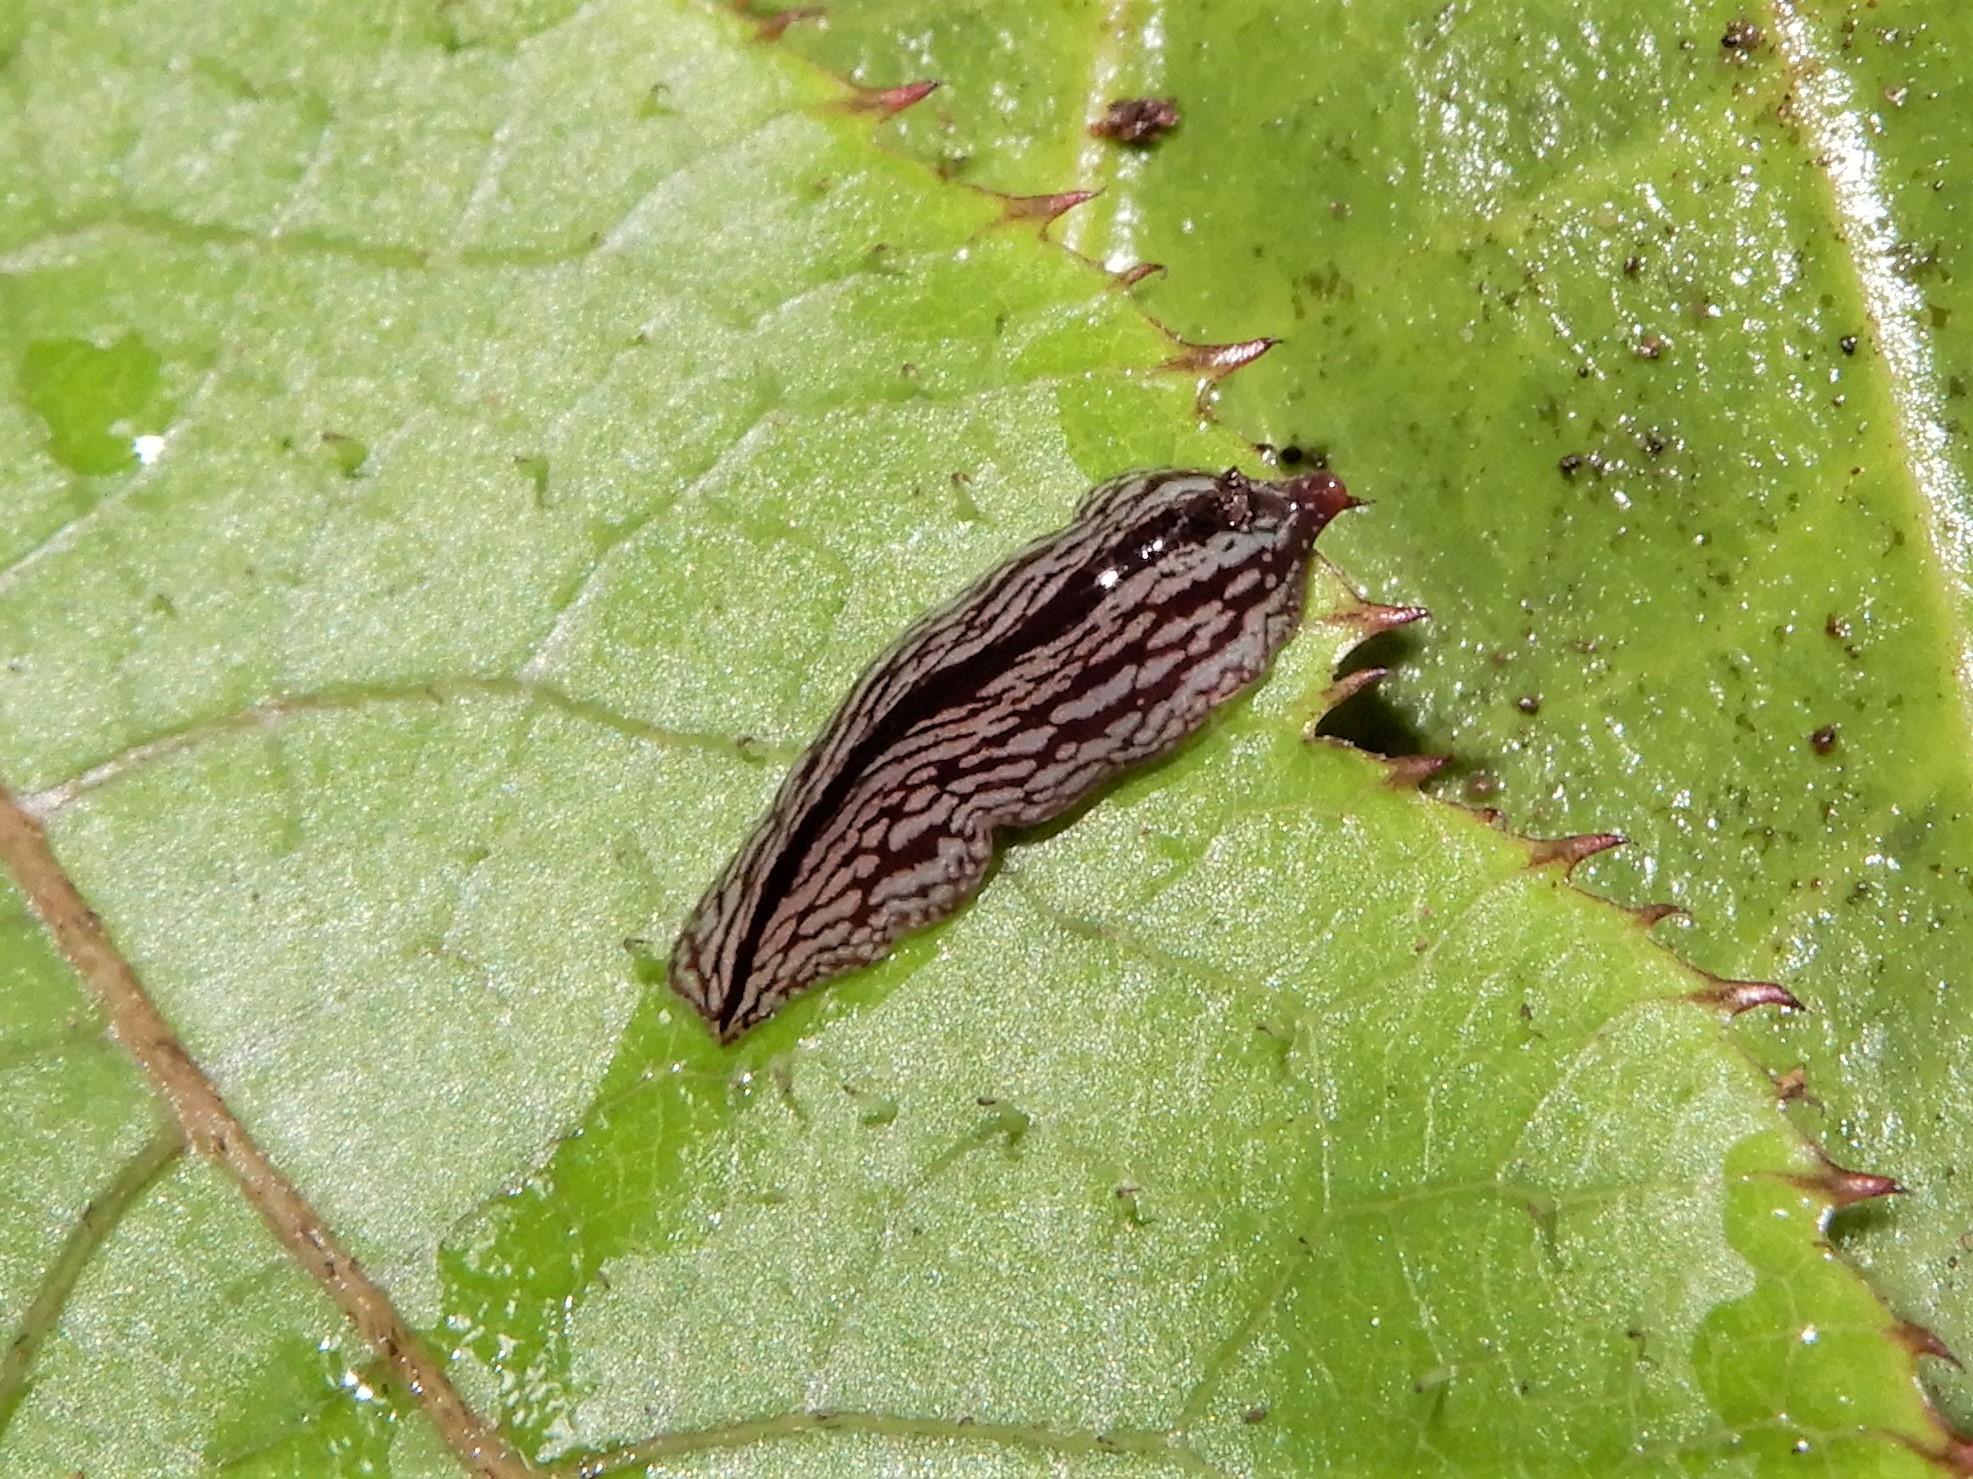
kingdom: Animalia
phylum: Platyhelminthes
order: Tricladida
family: Geoplanidae
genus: Artioposthia
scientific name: Artioposthia exulans
